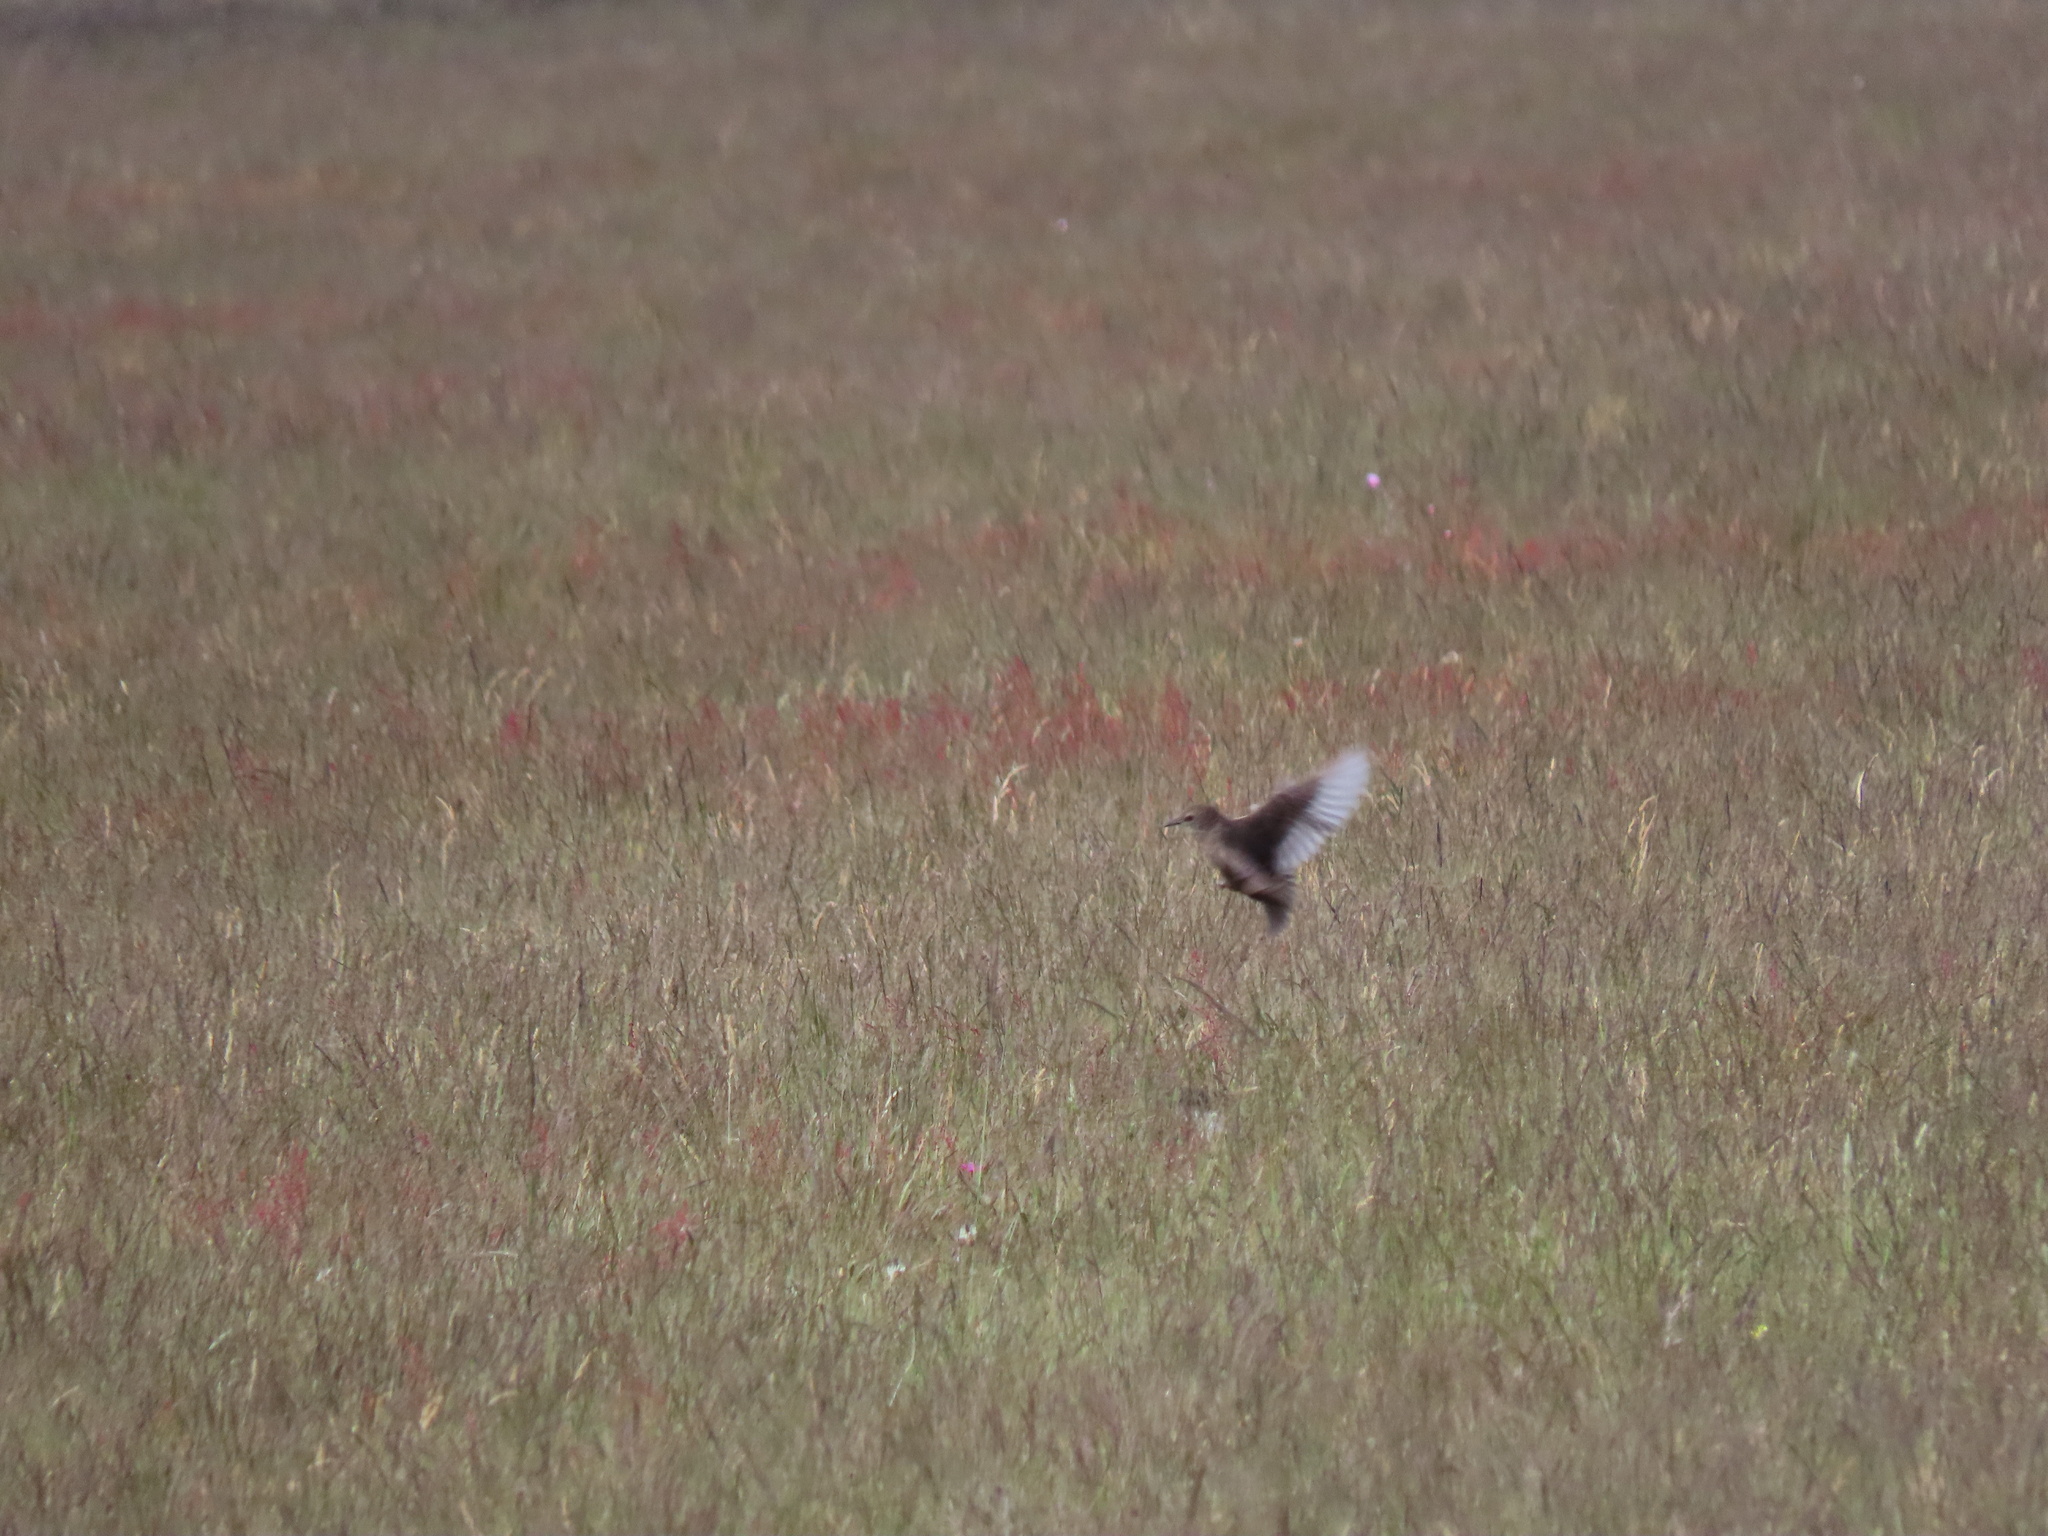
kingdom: Animalia
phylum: Chordata
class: Aves
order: Passeriformes
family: Sturnidae
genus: Sturnus
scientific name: Sturnus vulgaris
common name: Common starling
